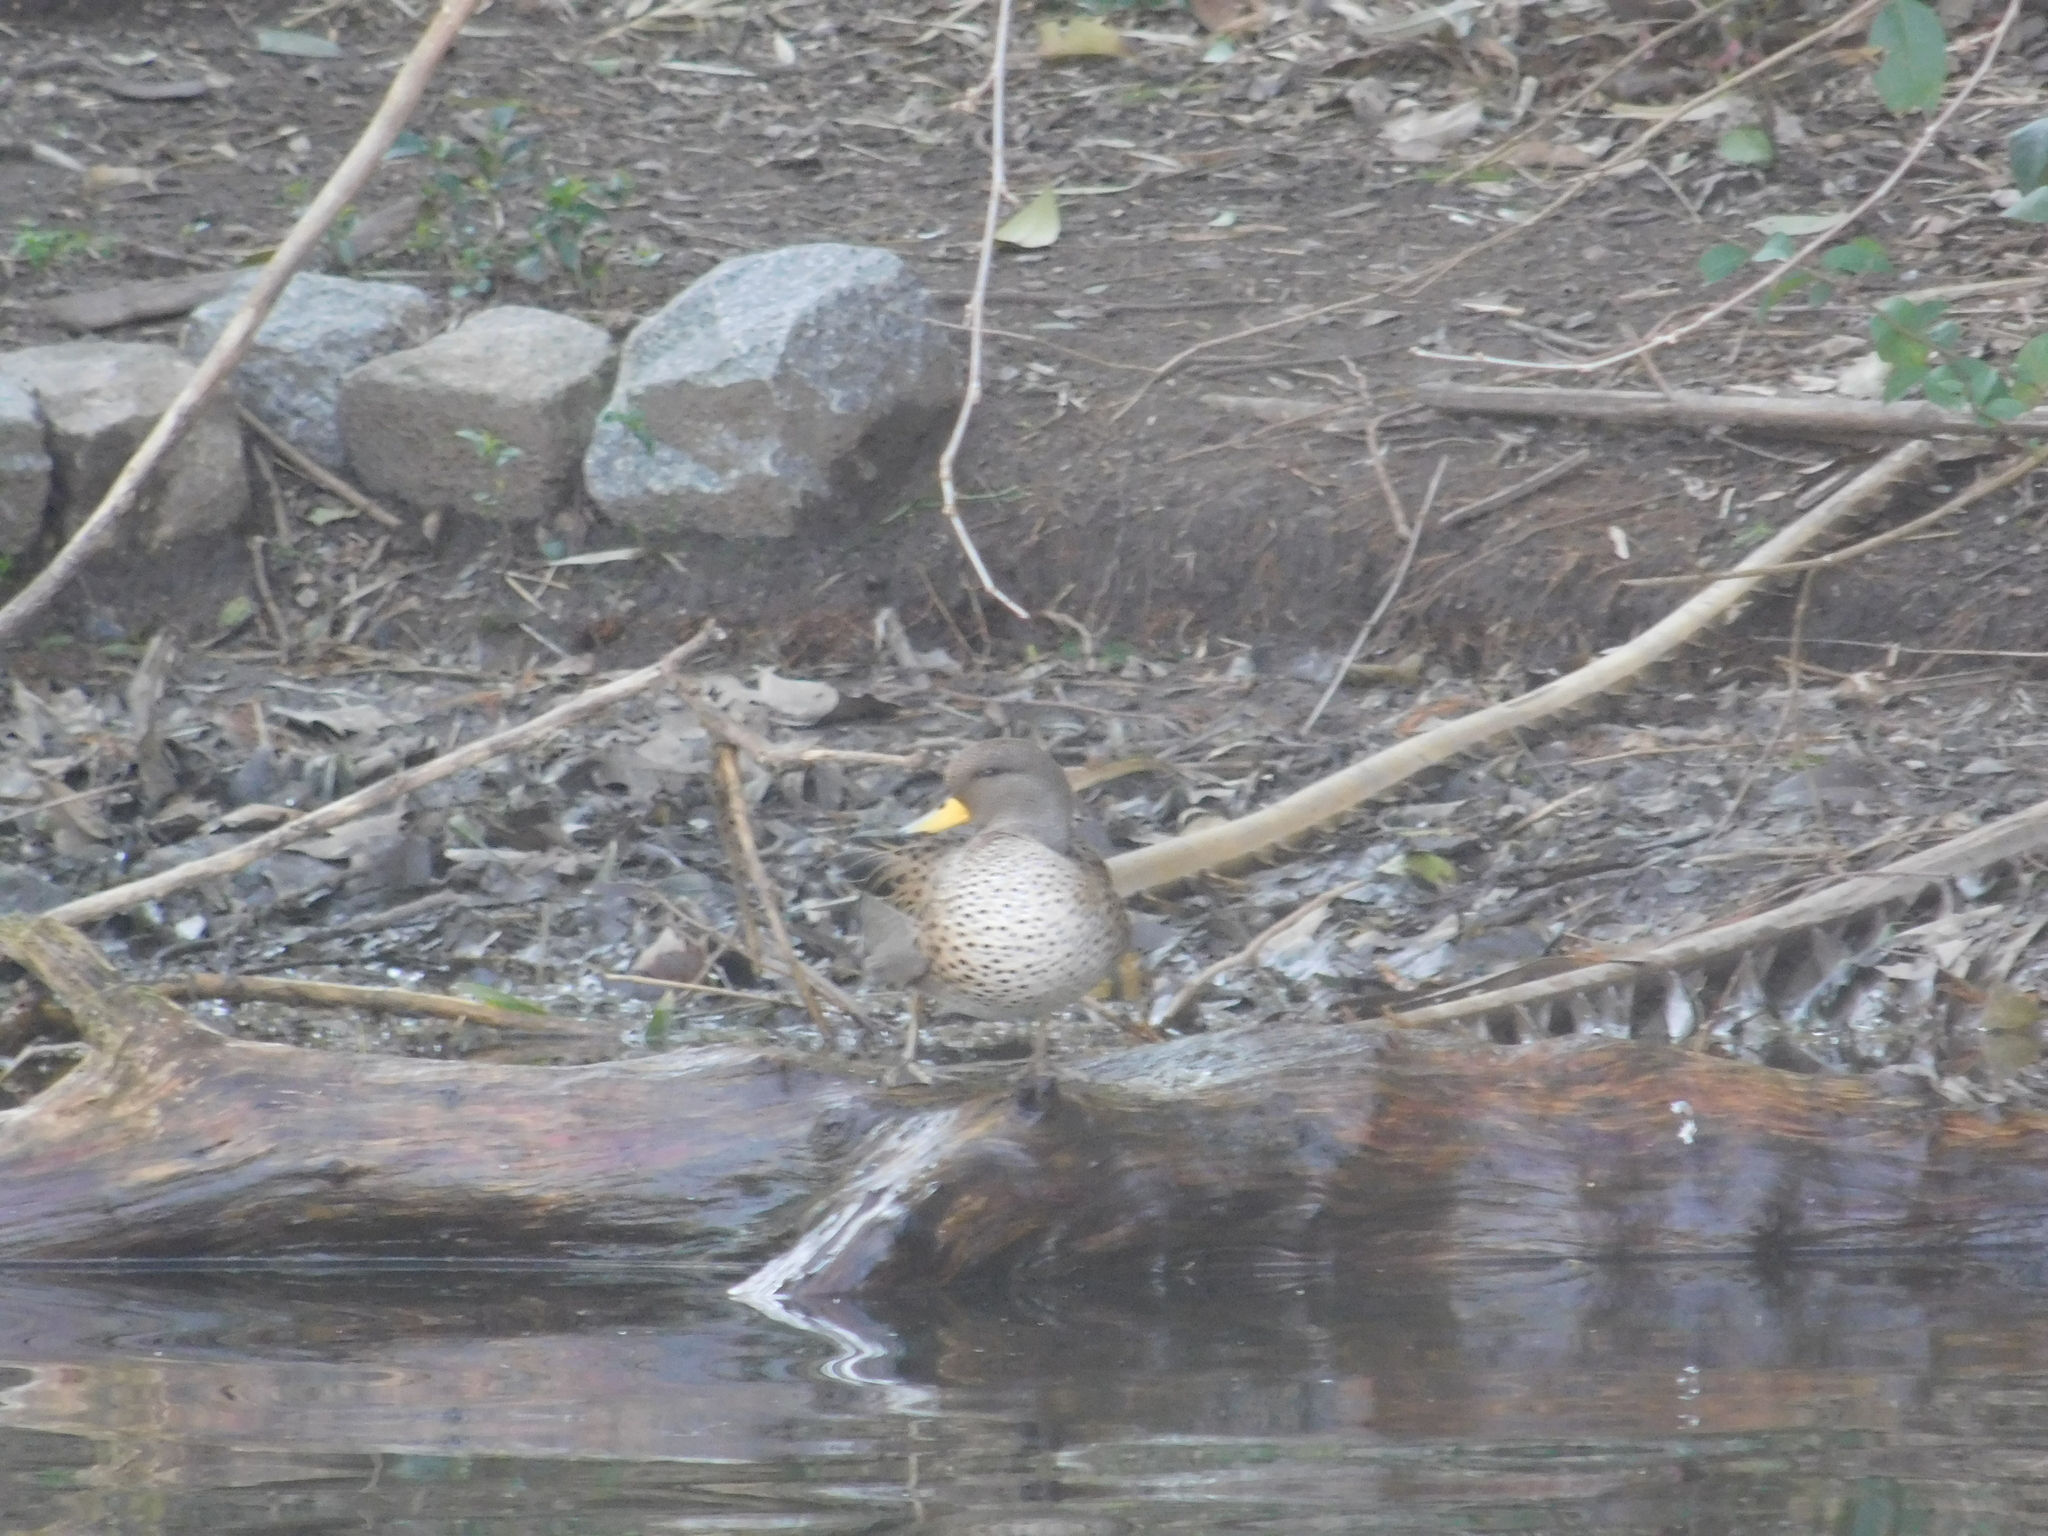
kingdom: Animalia
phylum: Chordata
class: Aves
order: Anseriformes
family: Anatidae
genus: Anas
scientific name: Anas flavirostris
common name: Yellow-billed teal
